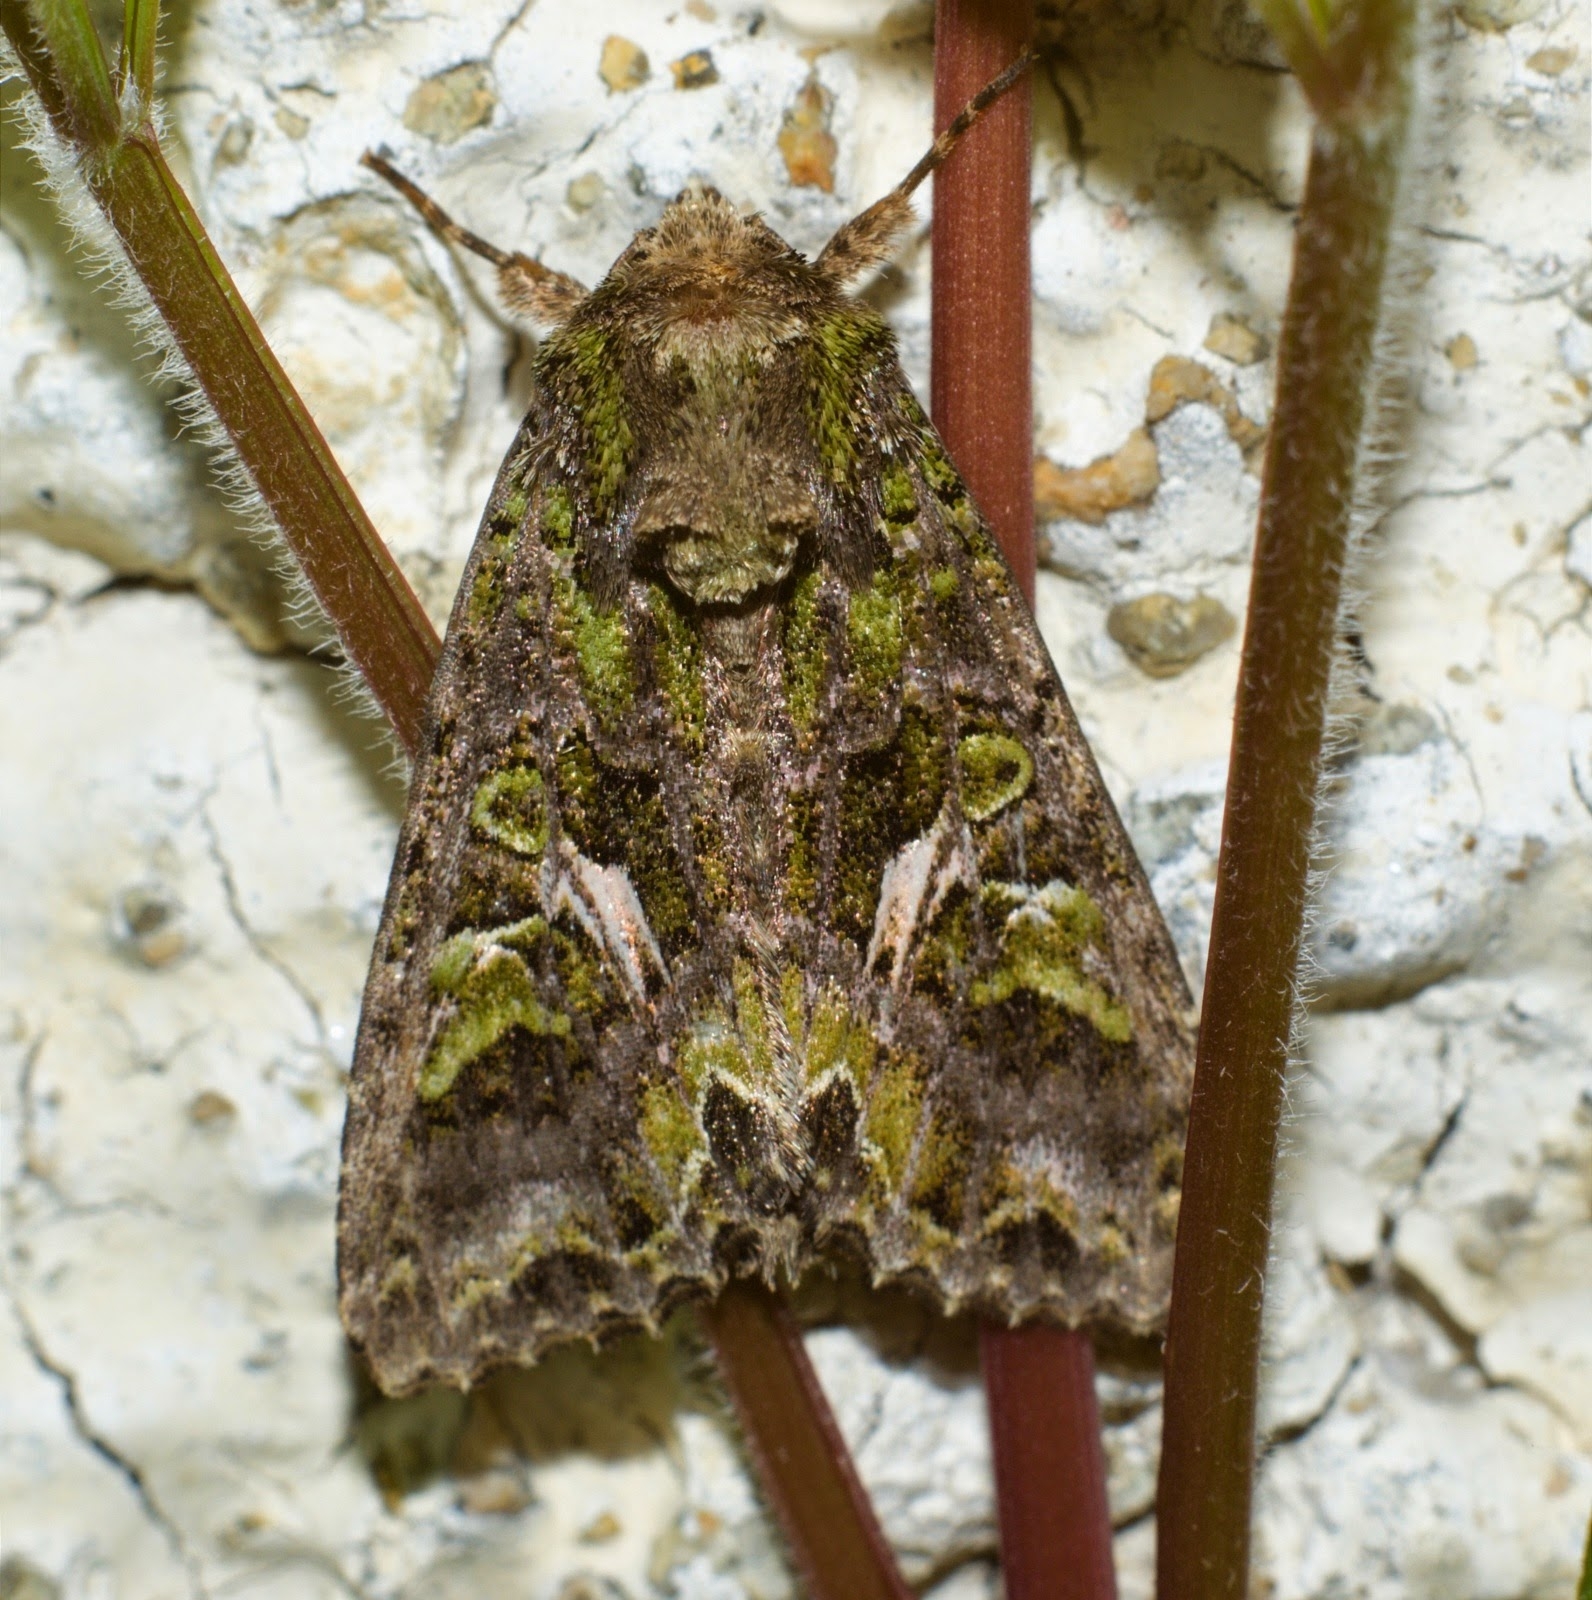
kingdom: Animalia
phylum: Arthropoda
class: Insecta
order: Lepidoptera
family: Noctuidae
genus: Trachea
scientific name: Trachea atriplicis
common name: Orache moth
